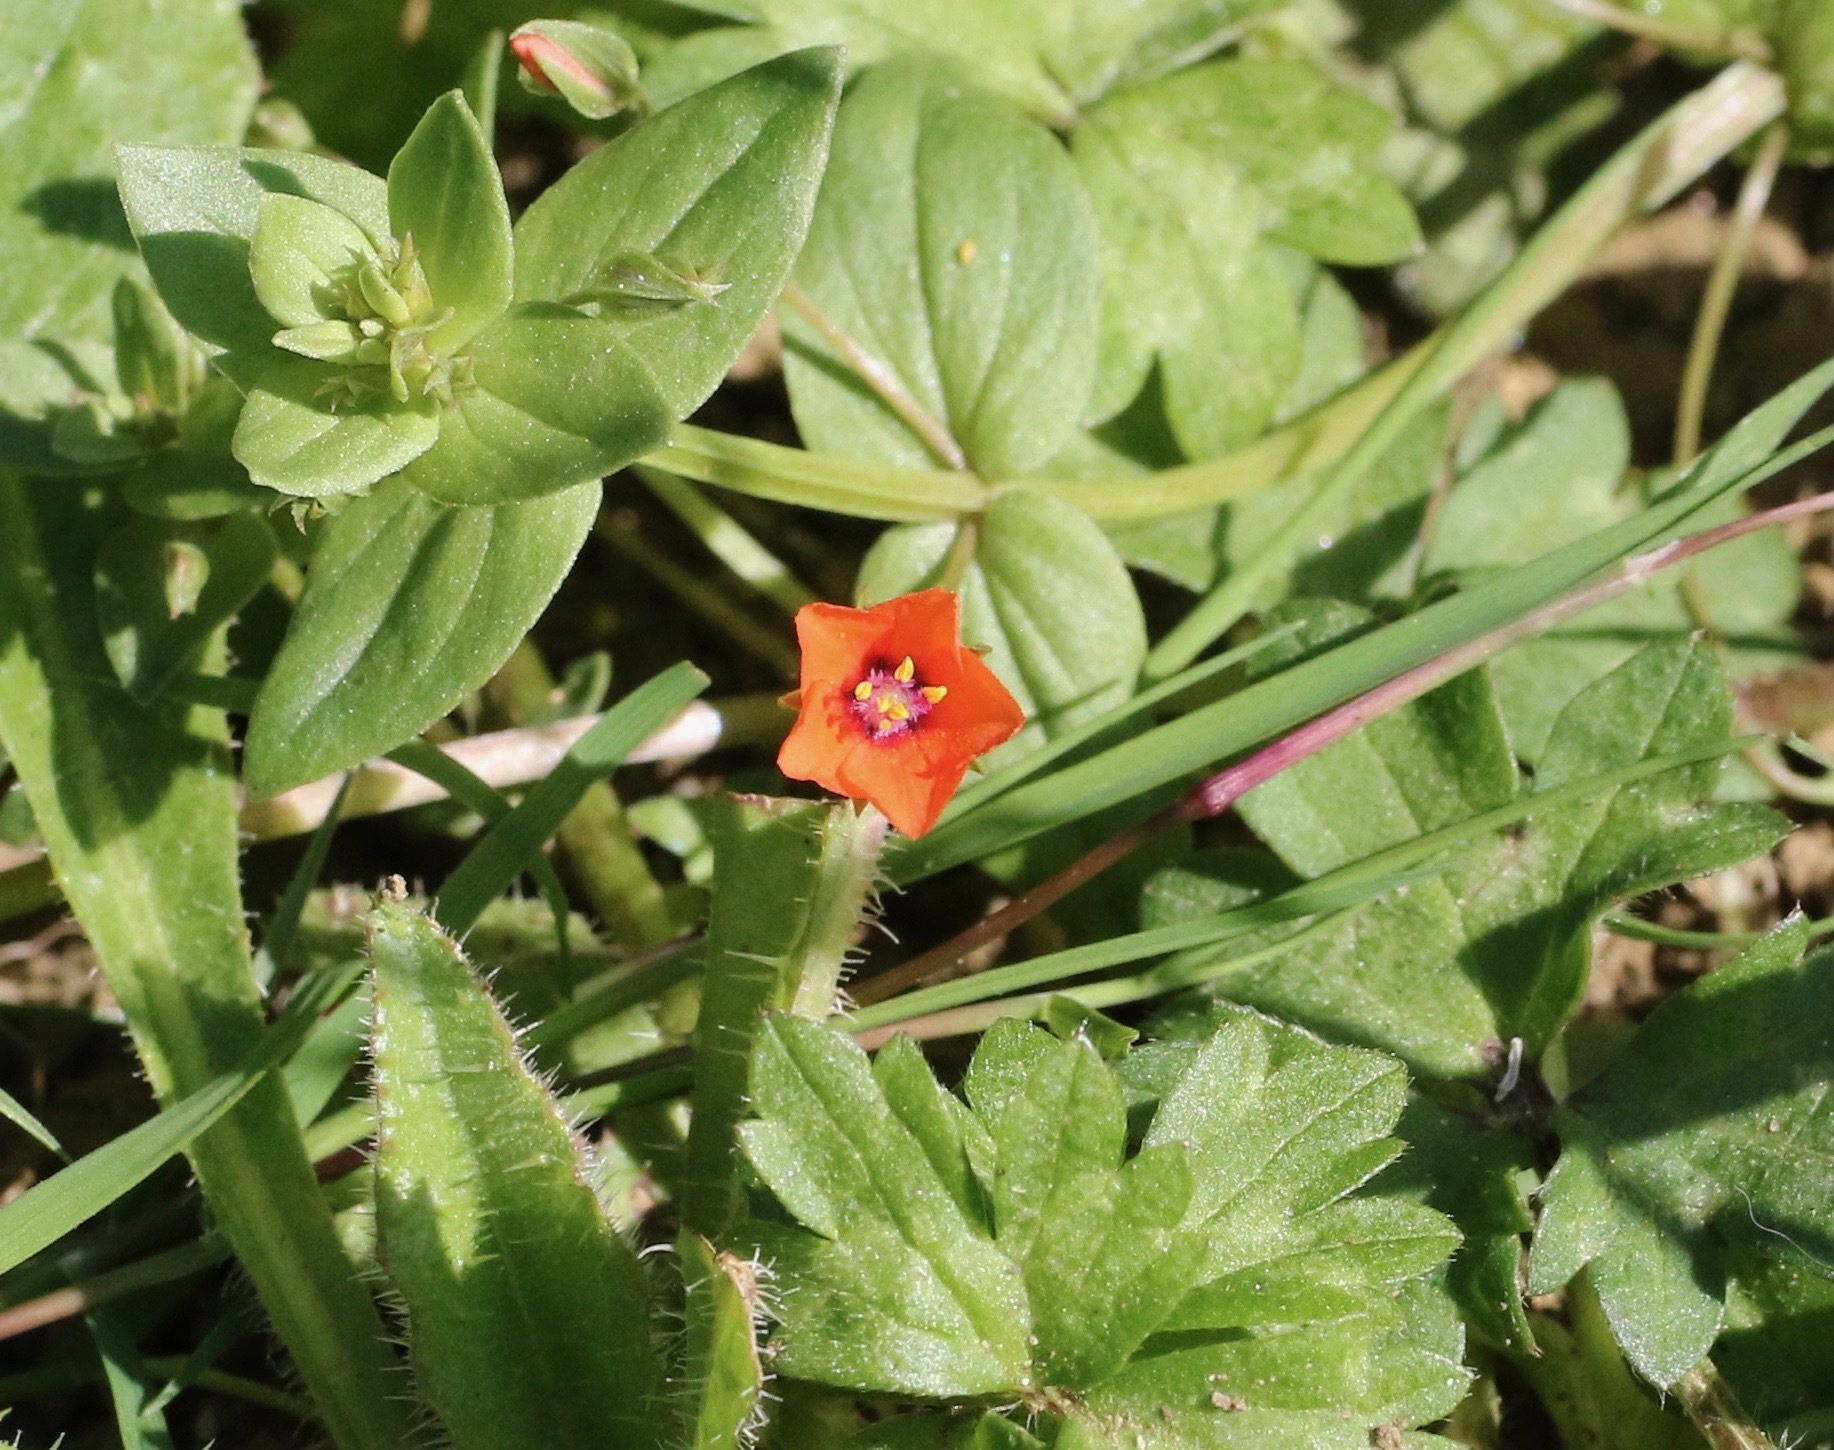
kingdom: Plantae
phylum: Tracheophyta
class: Magnoliopsida
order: Ericales
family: Primulaceae
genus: Lysimachia
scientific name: Lysimachia arvensis
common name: Scarlet pimpernel
